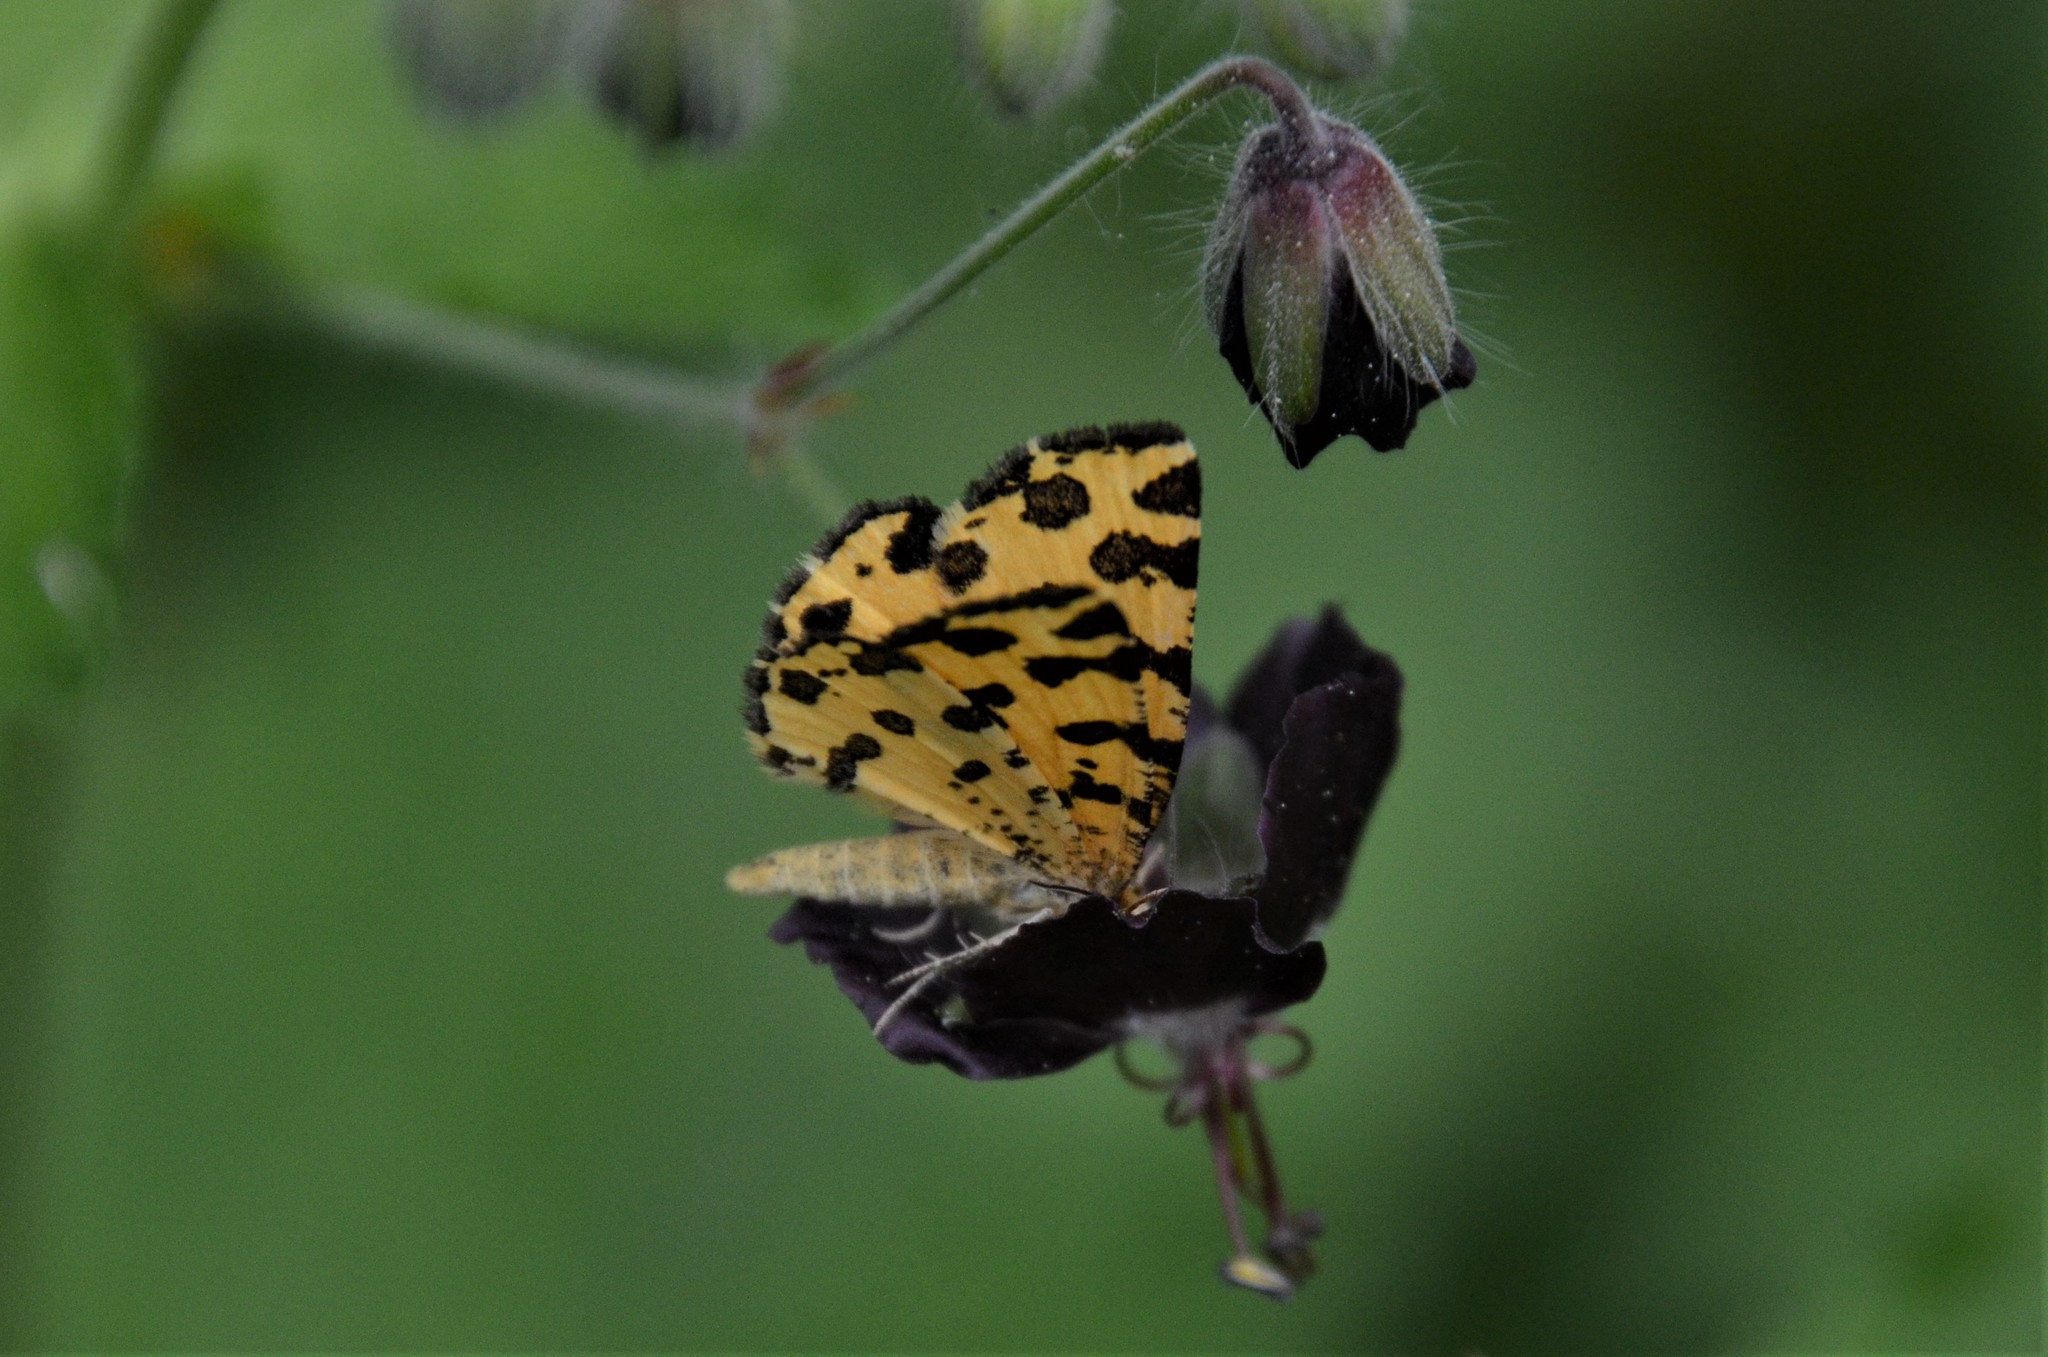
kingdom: Animalia
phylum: Arthropoda
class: Insecta
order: Lepidoptera
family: Geometridae
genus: Pseudopanthera
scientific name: Pseudopanthera macularia
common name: Speckled yellow
